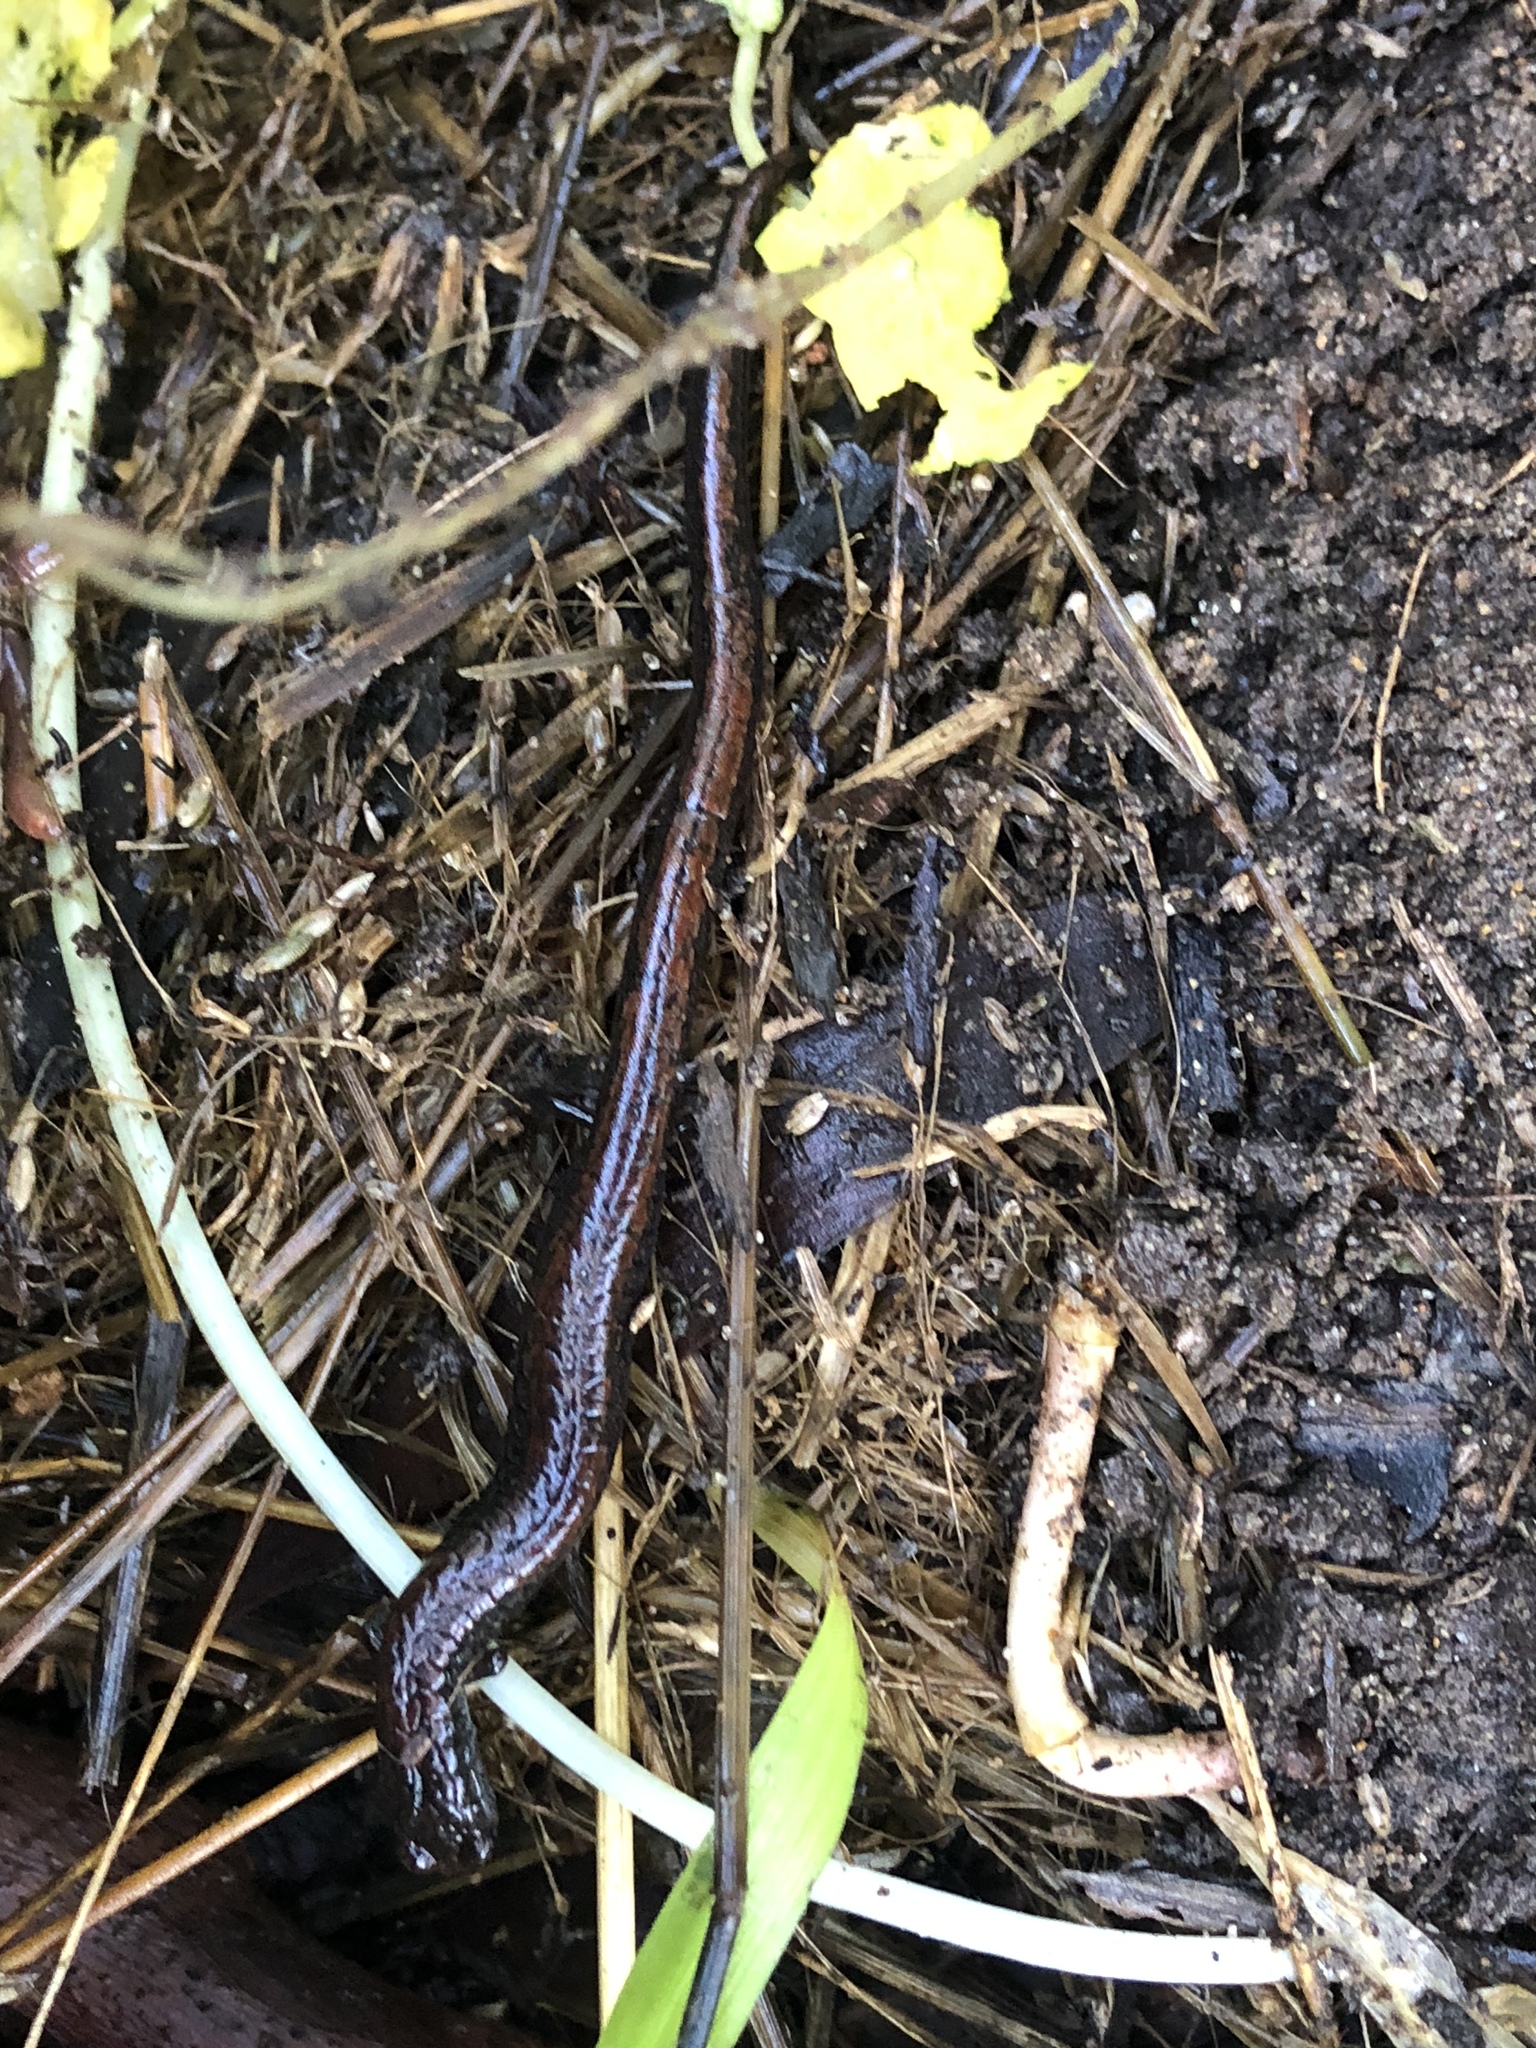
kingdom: Animalia
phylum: Chordata
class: Amphibia
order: Caudata
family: Plethodontidae
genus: Batrachoseps
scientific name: Batrachoseps attenuatus
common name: California slender salamander
